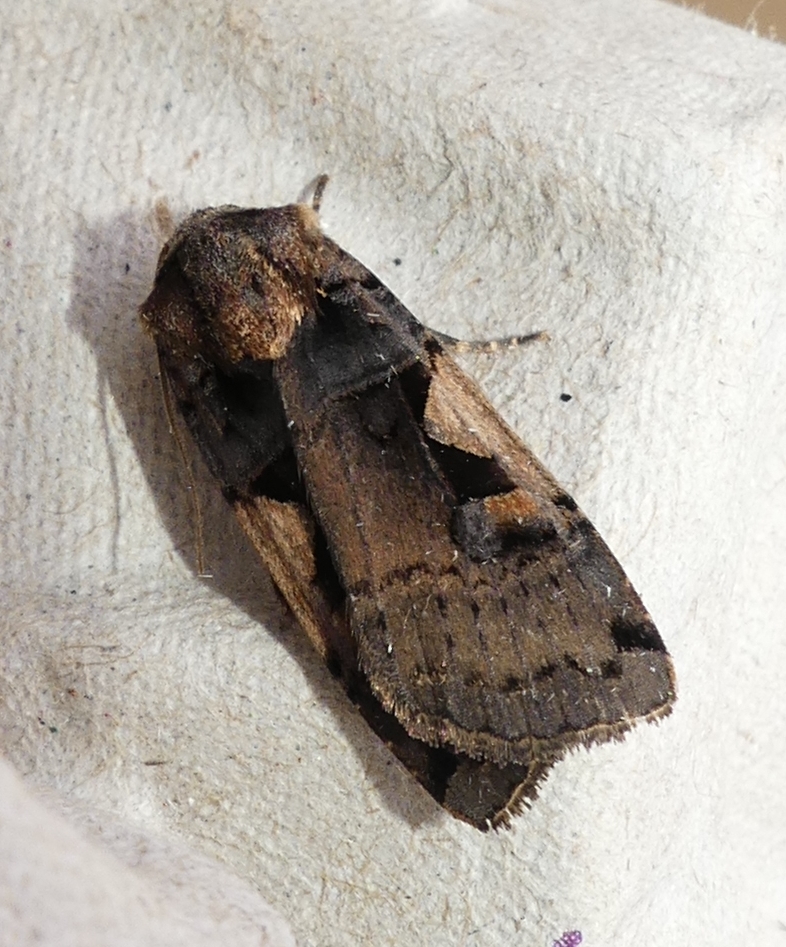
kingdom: Animalia
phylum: Arthropoda
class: Insecta
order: Lepidoptera
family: Noctuidae
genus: Xestia
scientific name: Xestia
